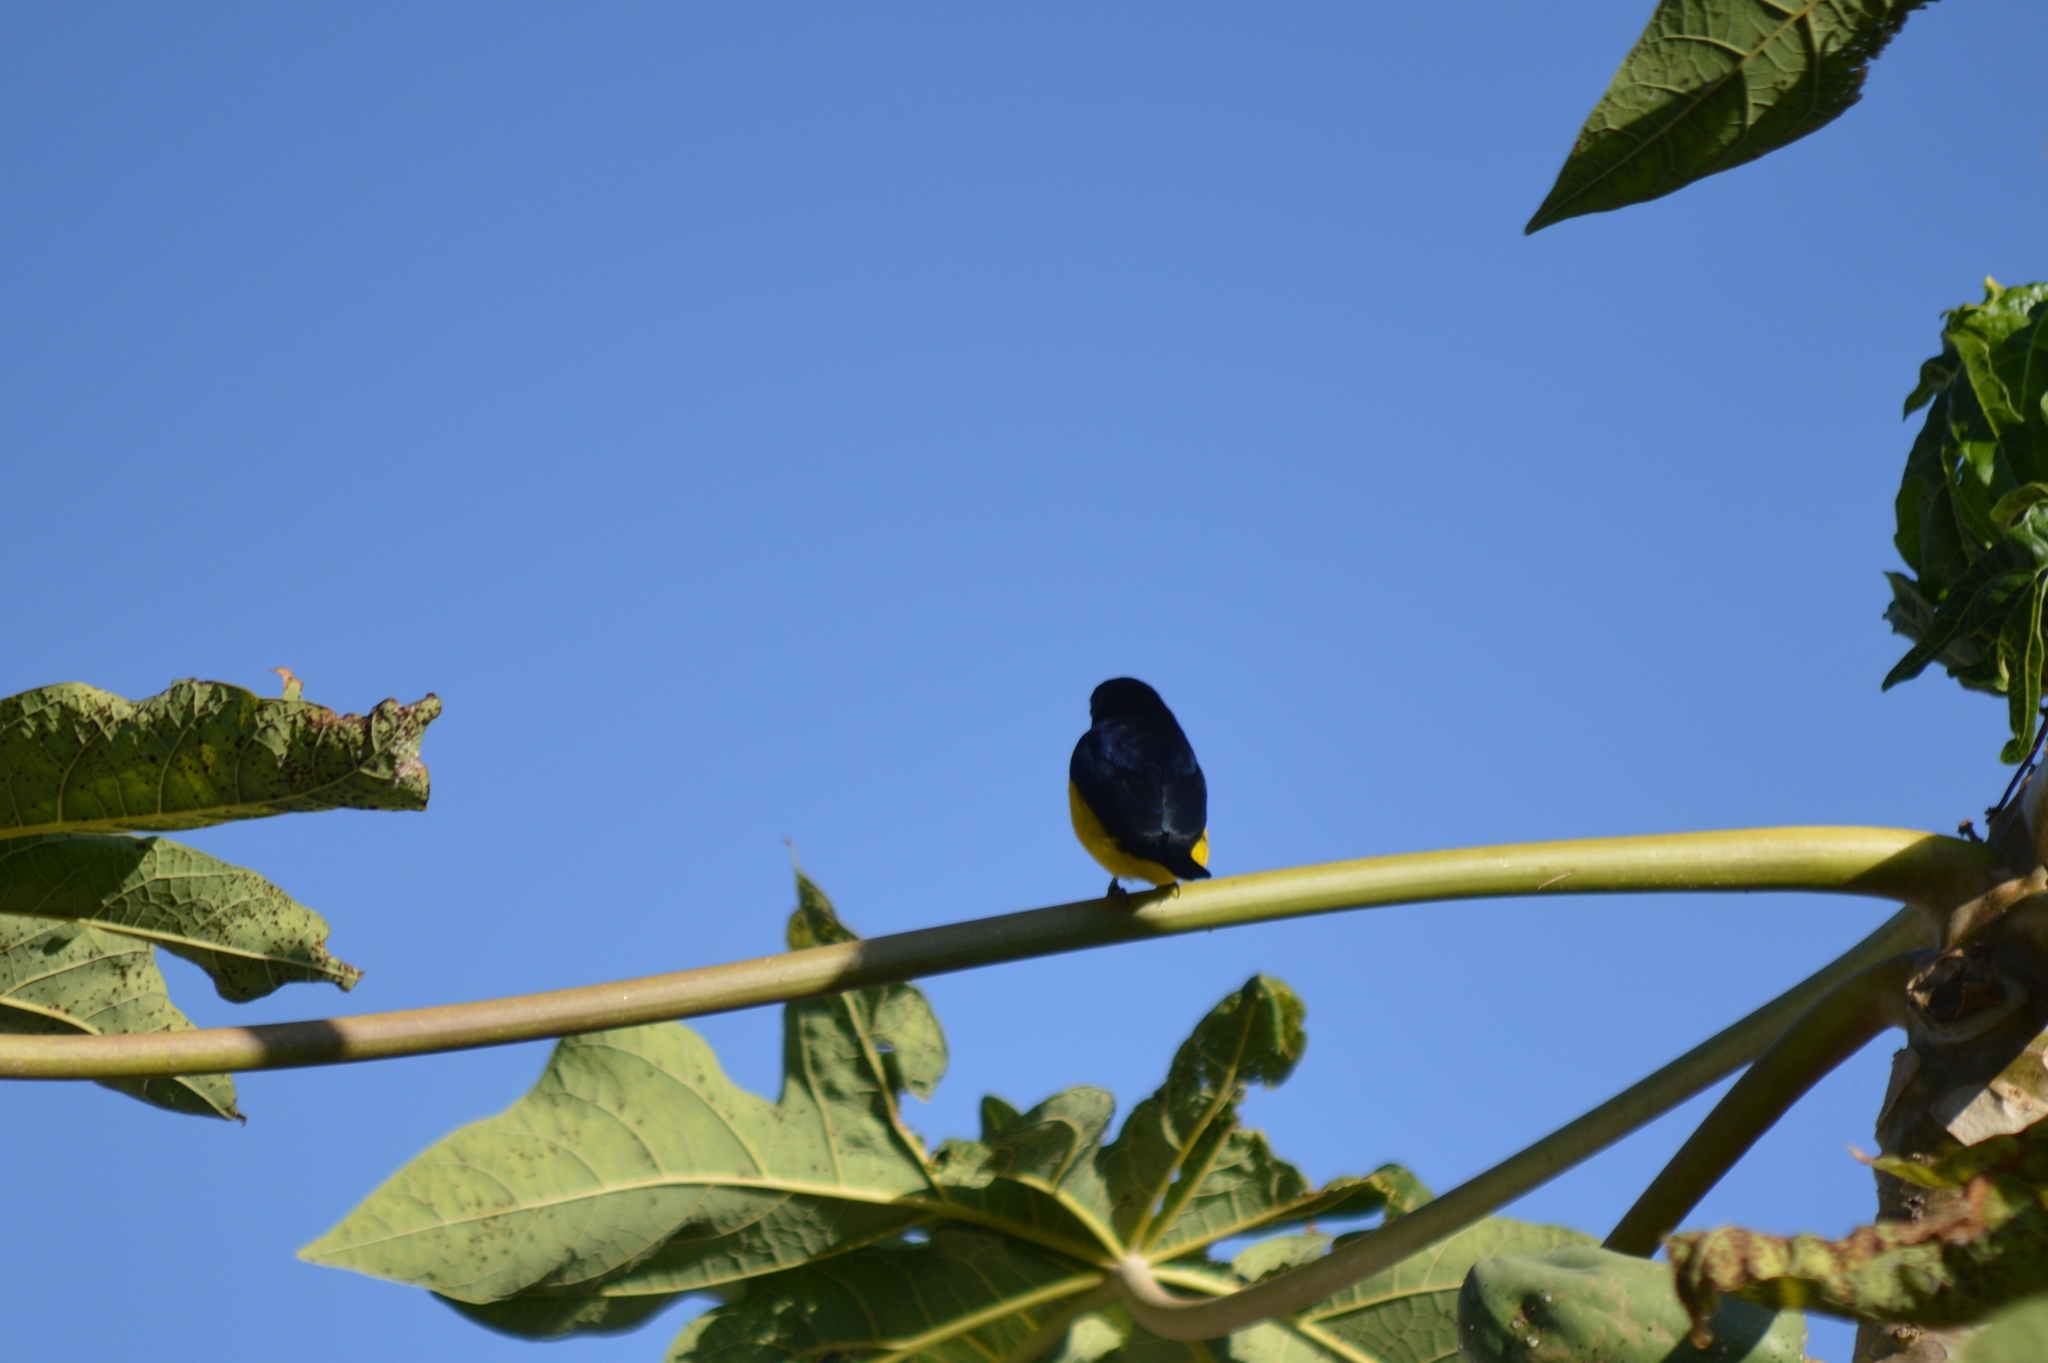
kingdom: Animalia
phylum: Chordata
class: Aves
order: Passeriformes
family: Fringillidae
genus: Euphonia
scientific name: Euphonia violacea
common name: Violaceous euphonia
